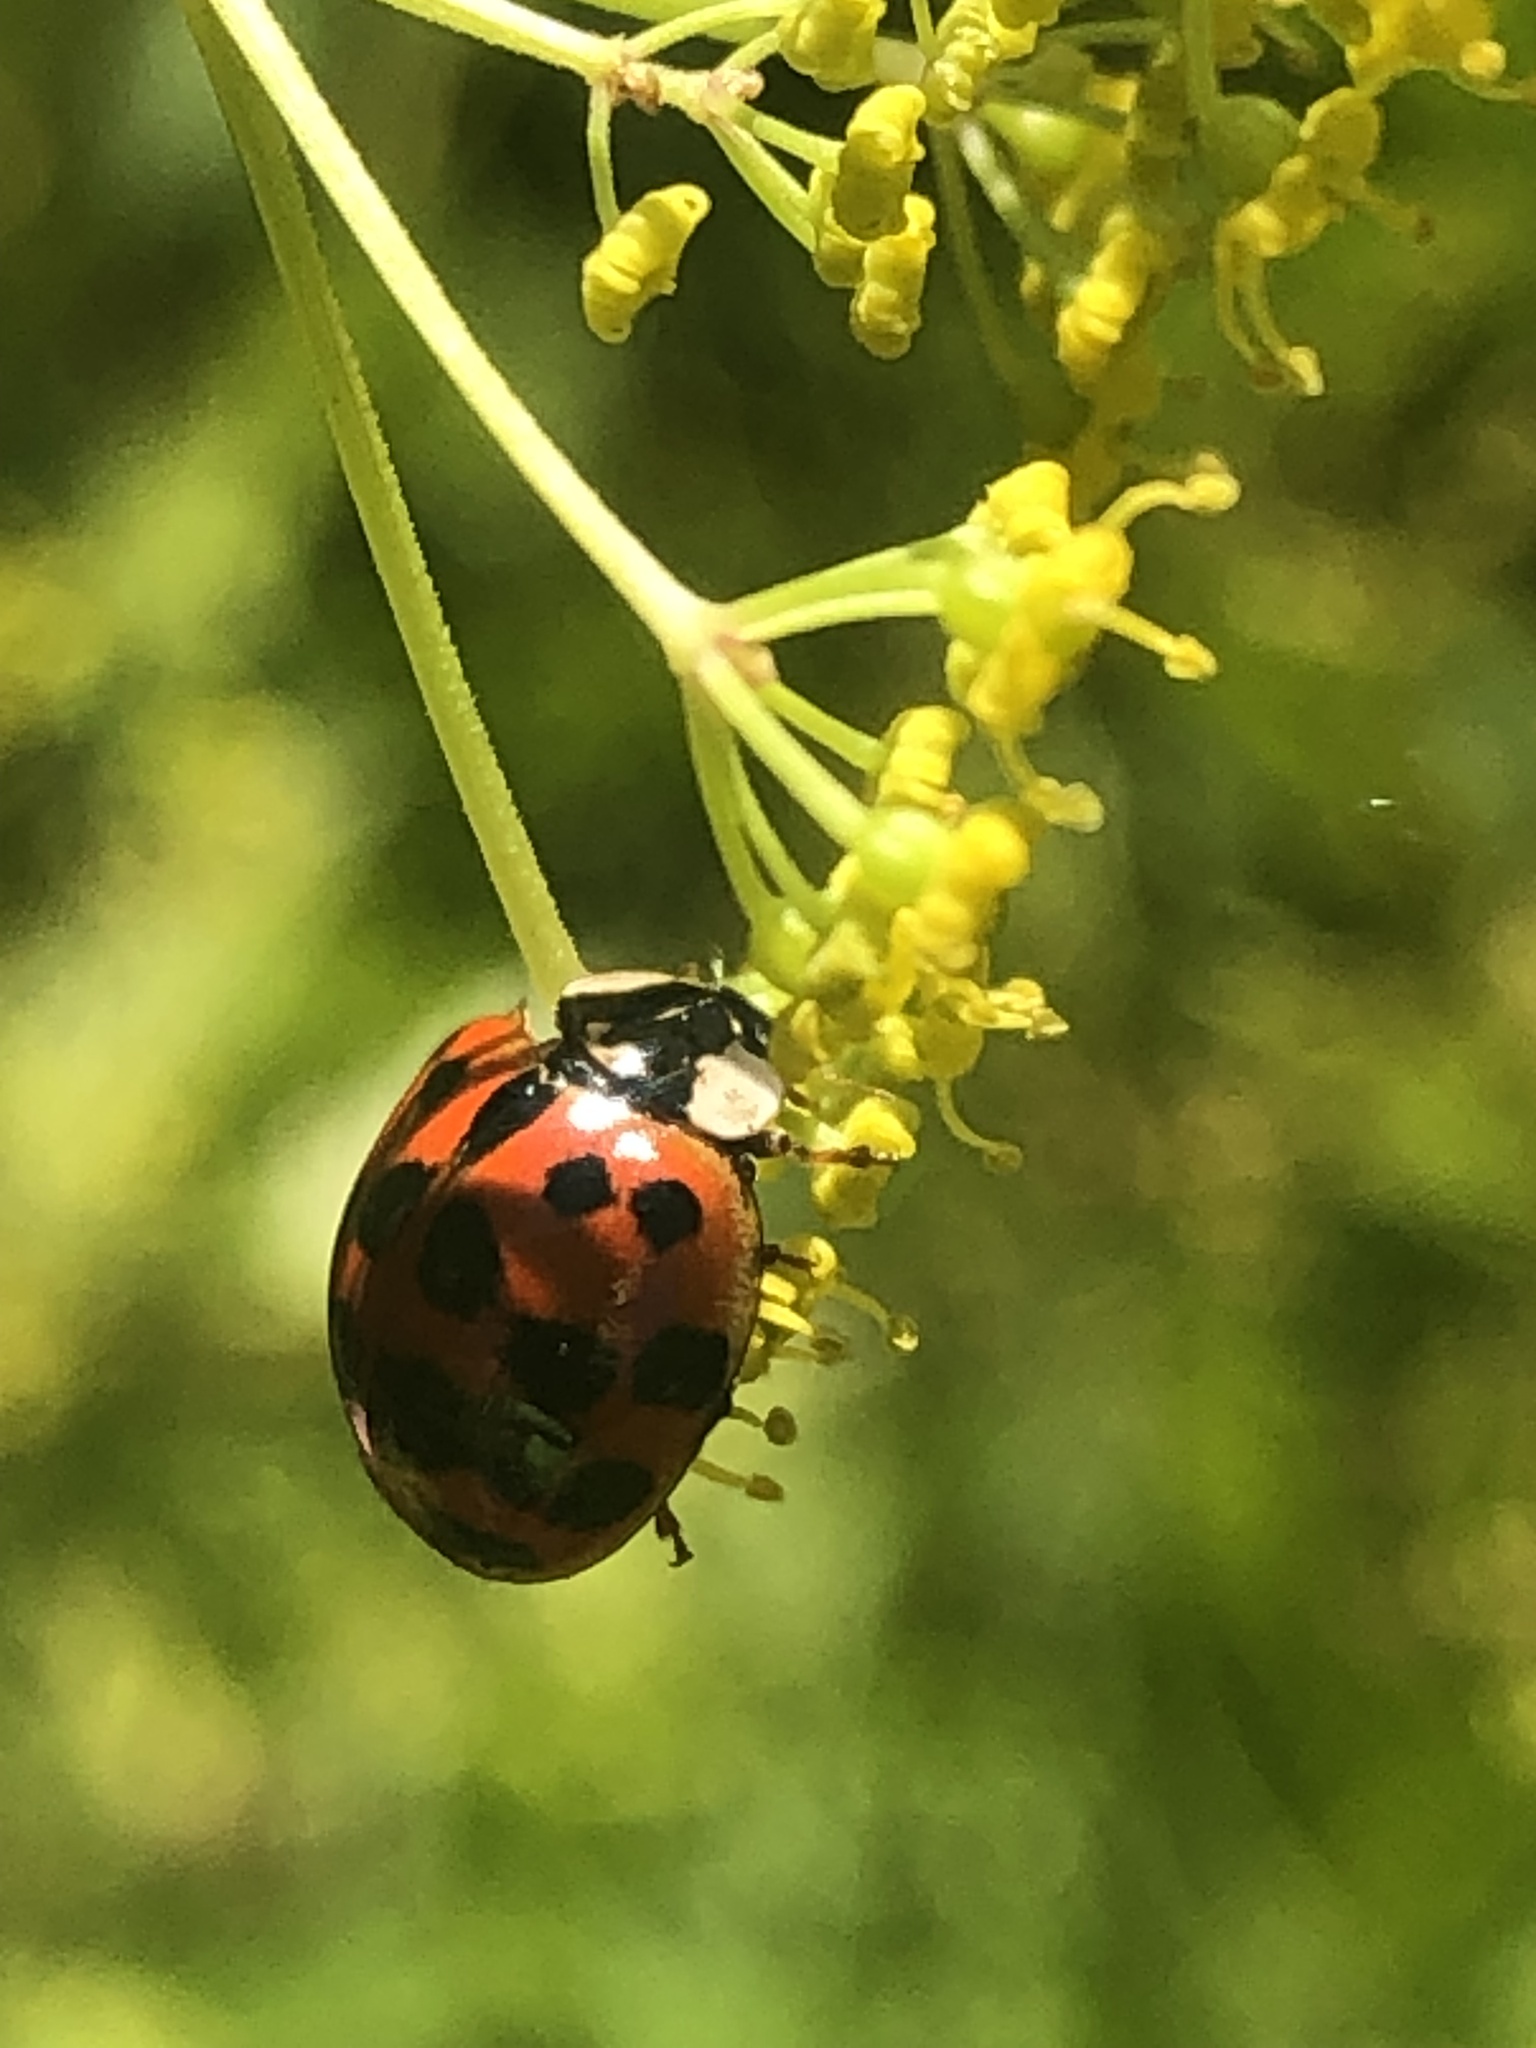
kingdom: Animalia
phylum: Arthropoda
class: Insecta
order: Coleoptera
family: Coccinellidae
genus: Harmonia
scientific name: Harmonia axyridis
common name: Harlequin ladybird
